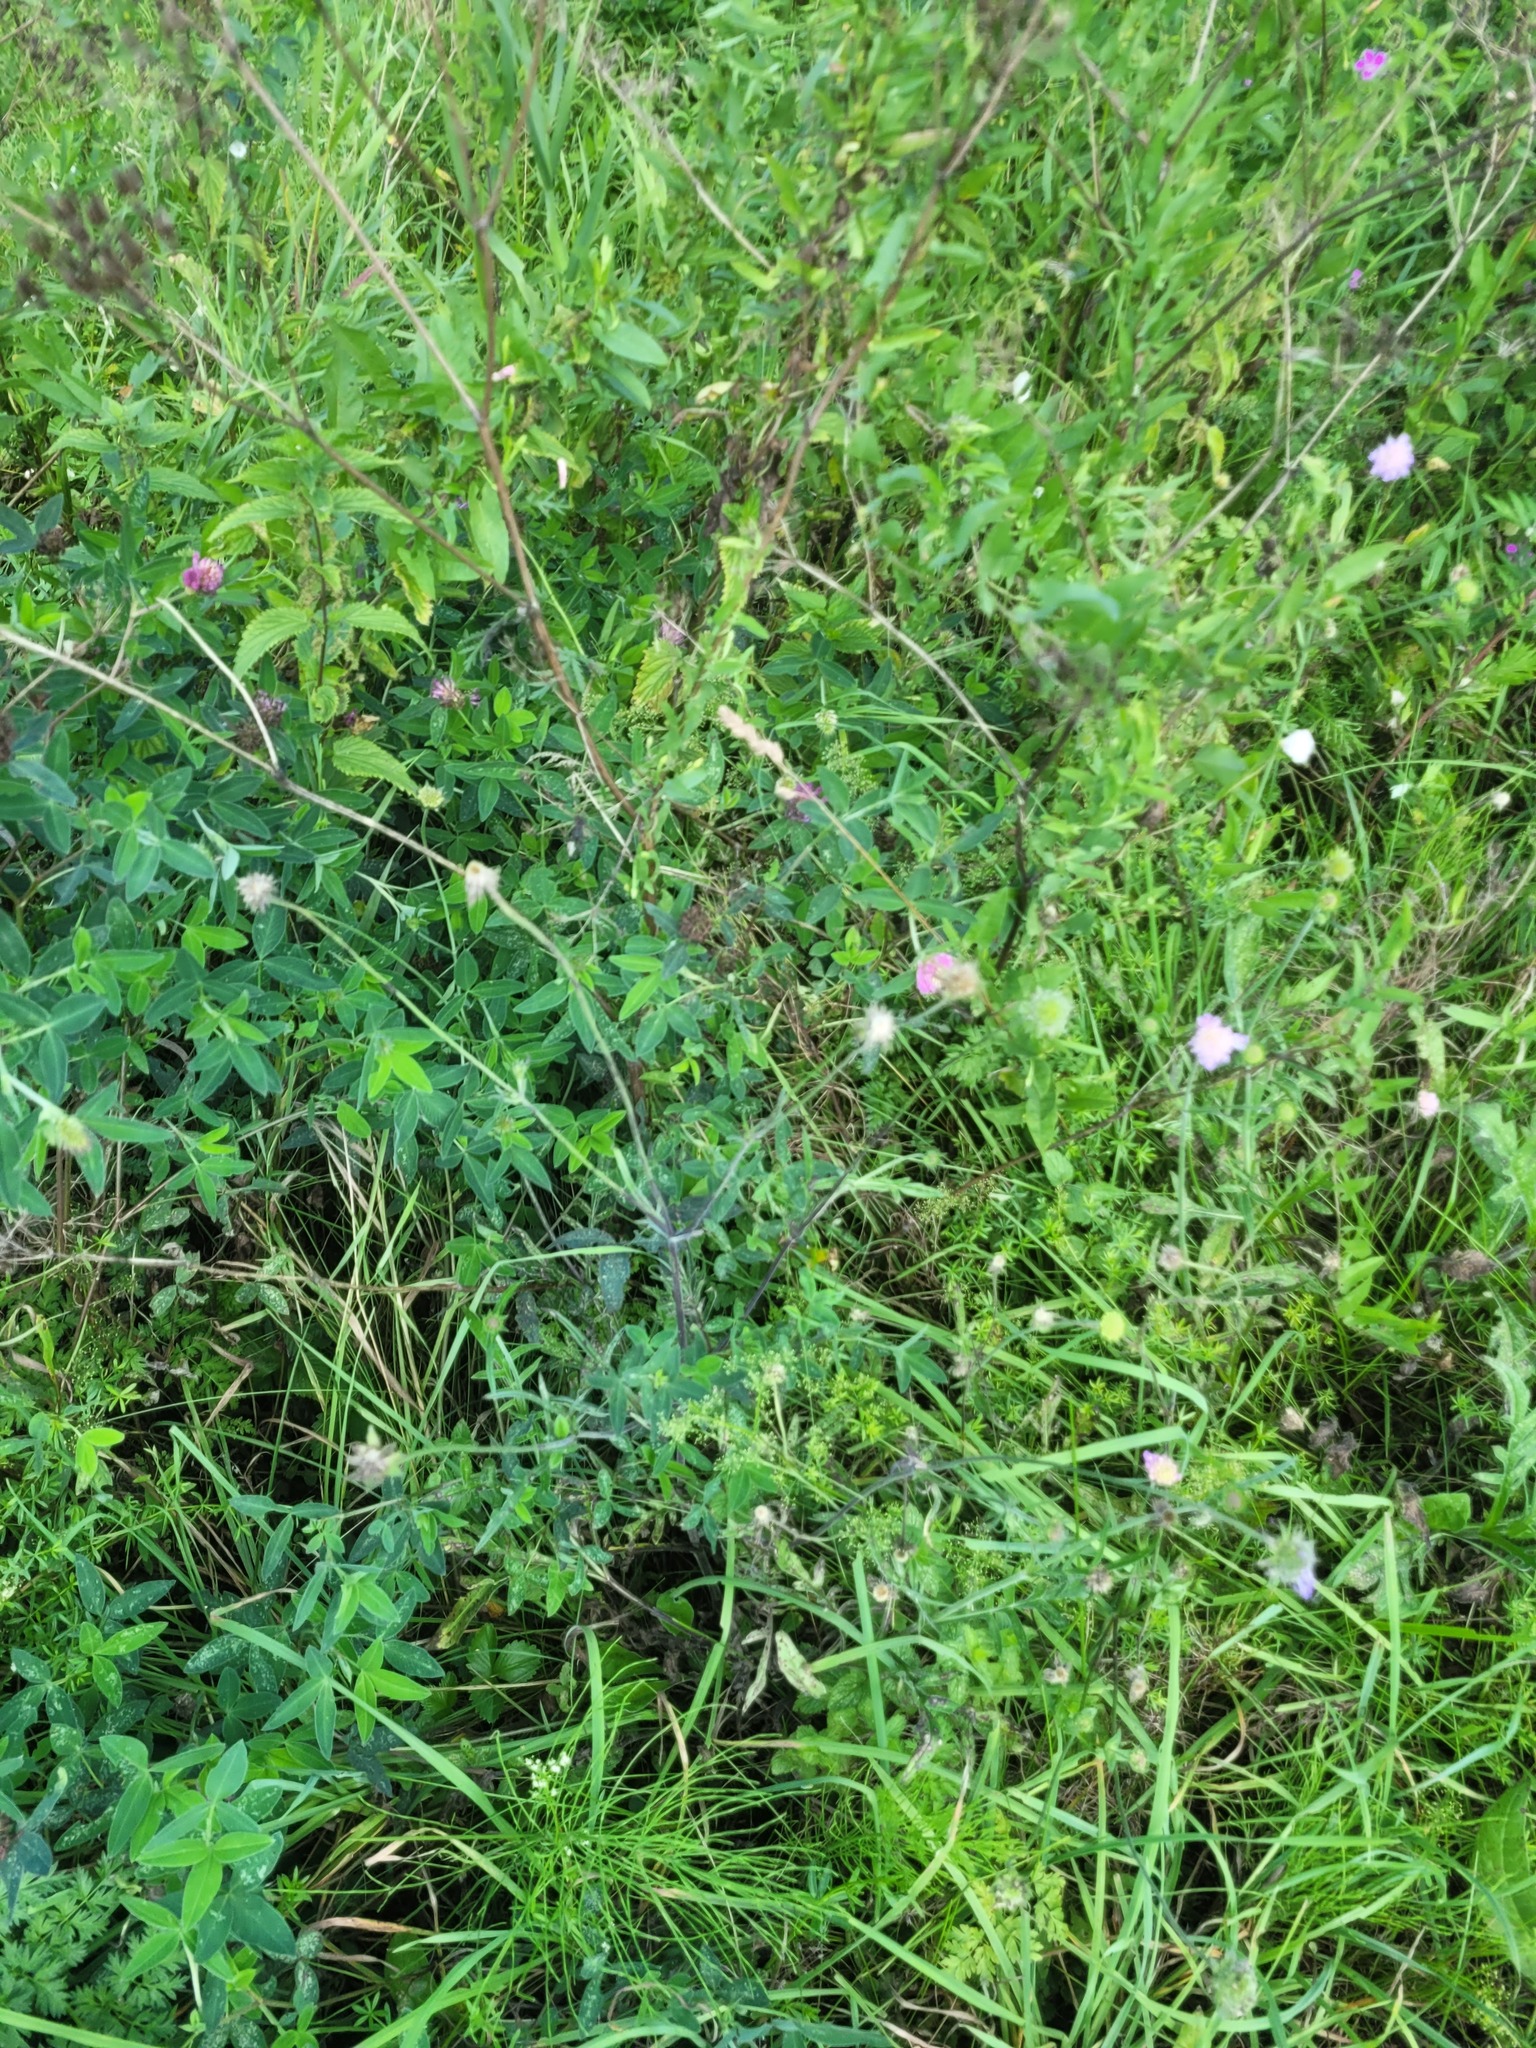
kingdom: Plantae
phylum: Tracheophyta
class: Magnoliopsida
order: Fabales
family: Fabaceae
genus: Trifolium
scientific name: Trifolium medium
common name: Zigzag clover
